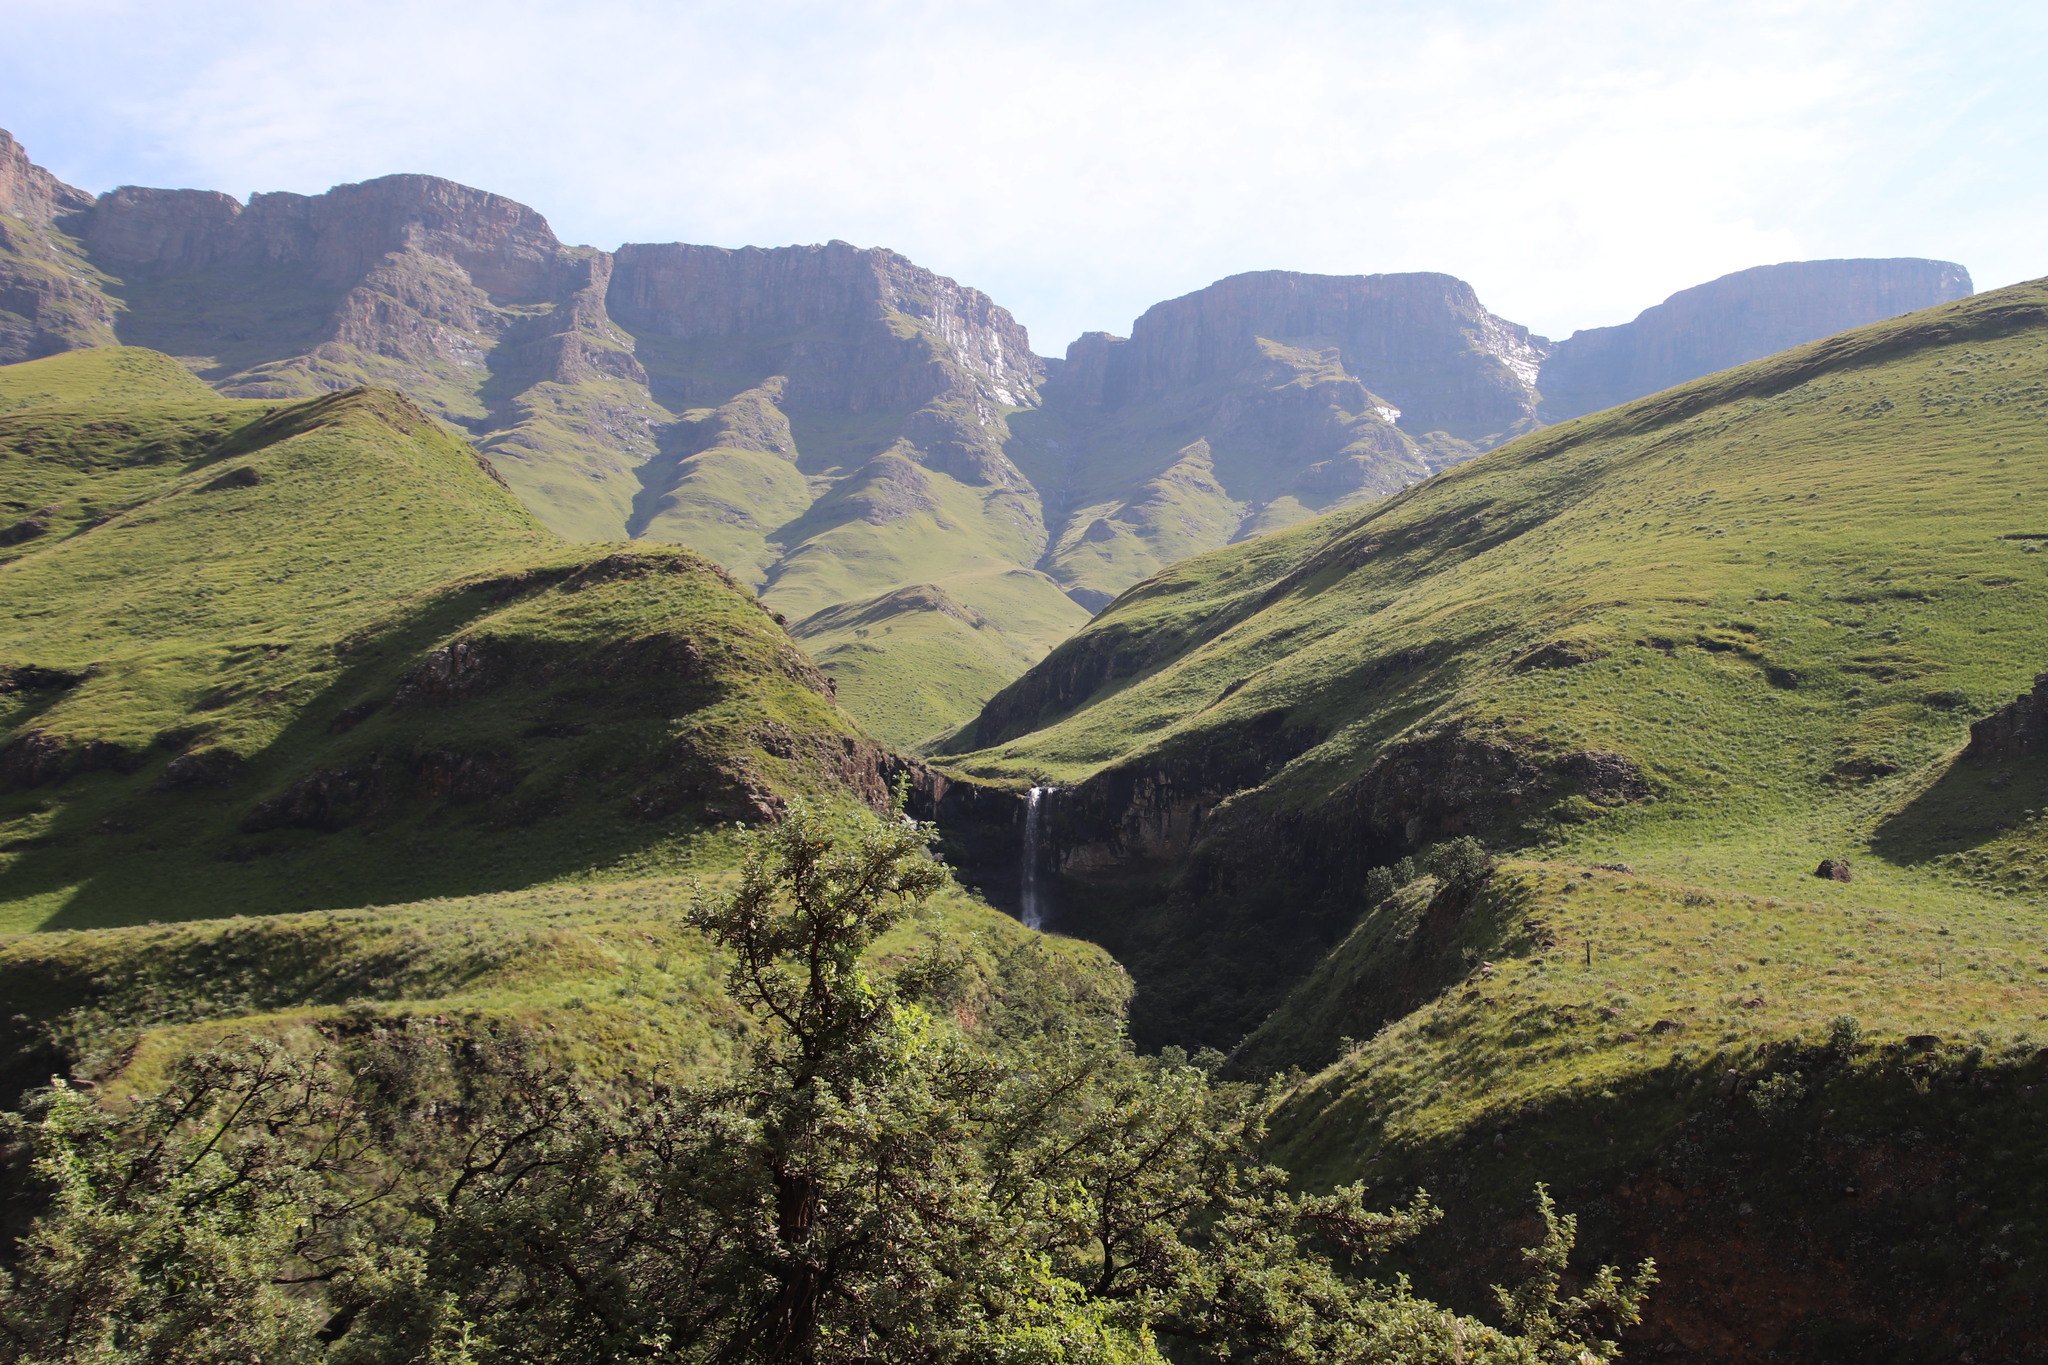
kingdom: Plantae
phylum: Tracheophyta
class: Magnoliopsida
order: Rosales
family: Rosaceae
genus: Leucosidea
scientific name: Leucosidea sericea
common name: Oldwood
